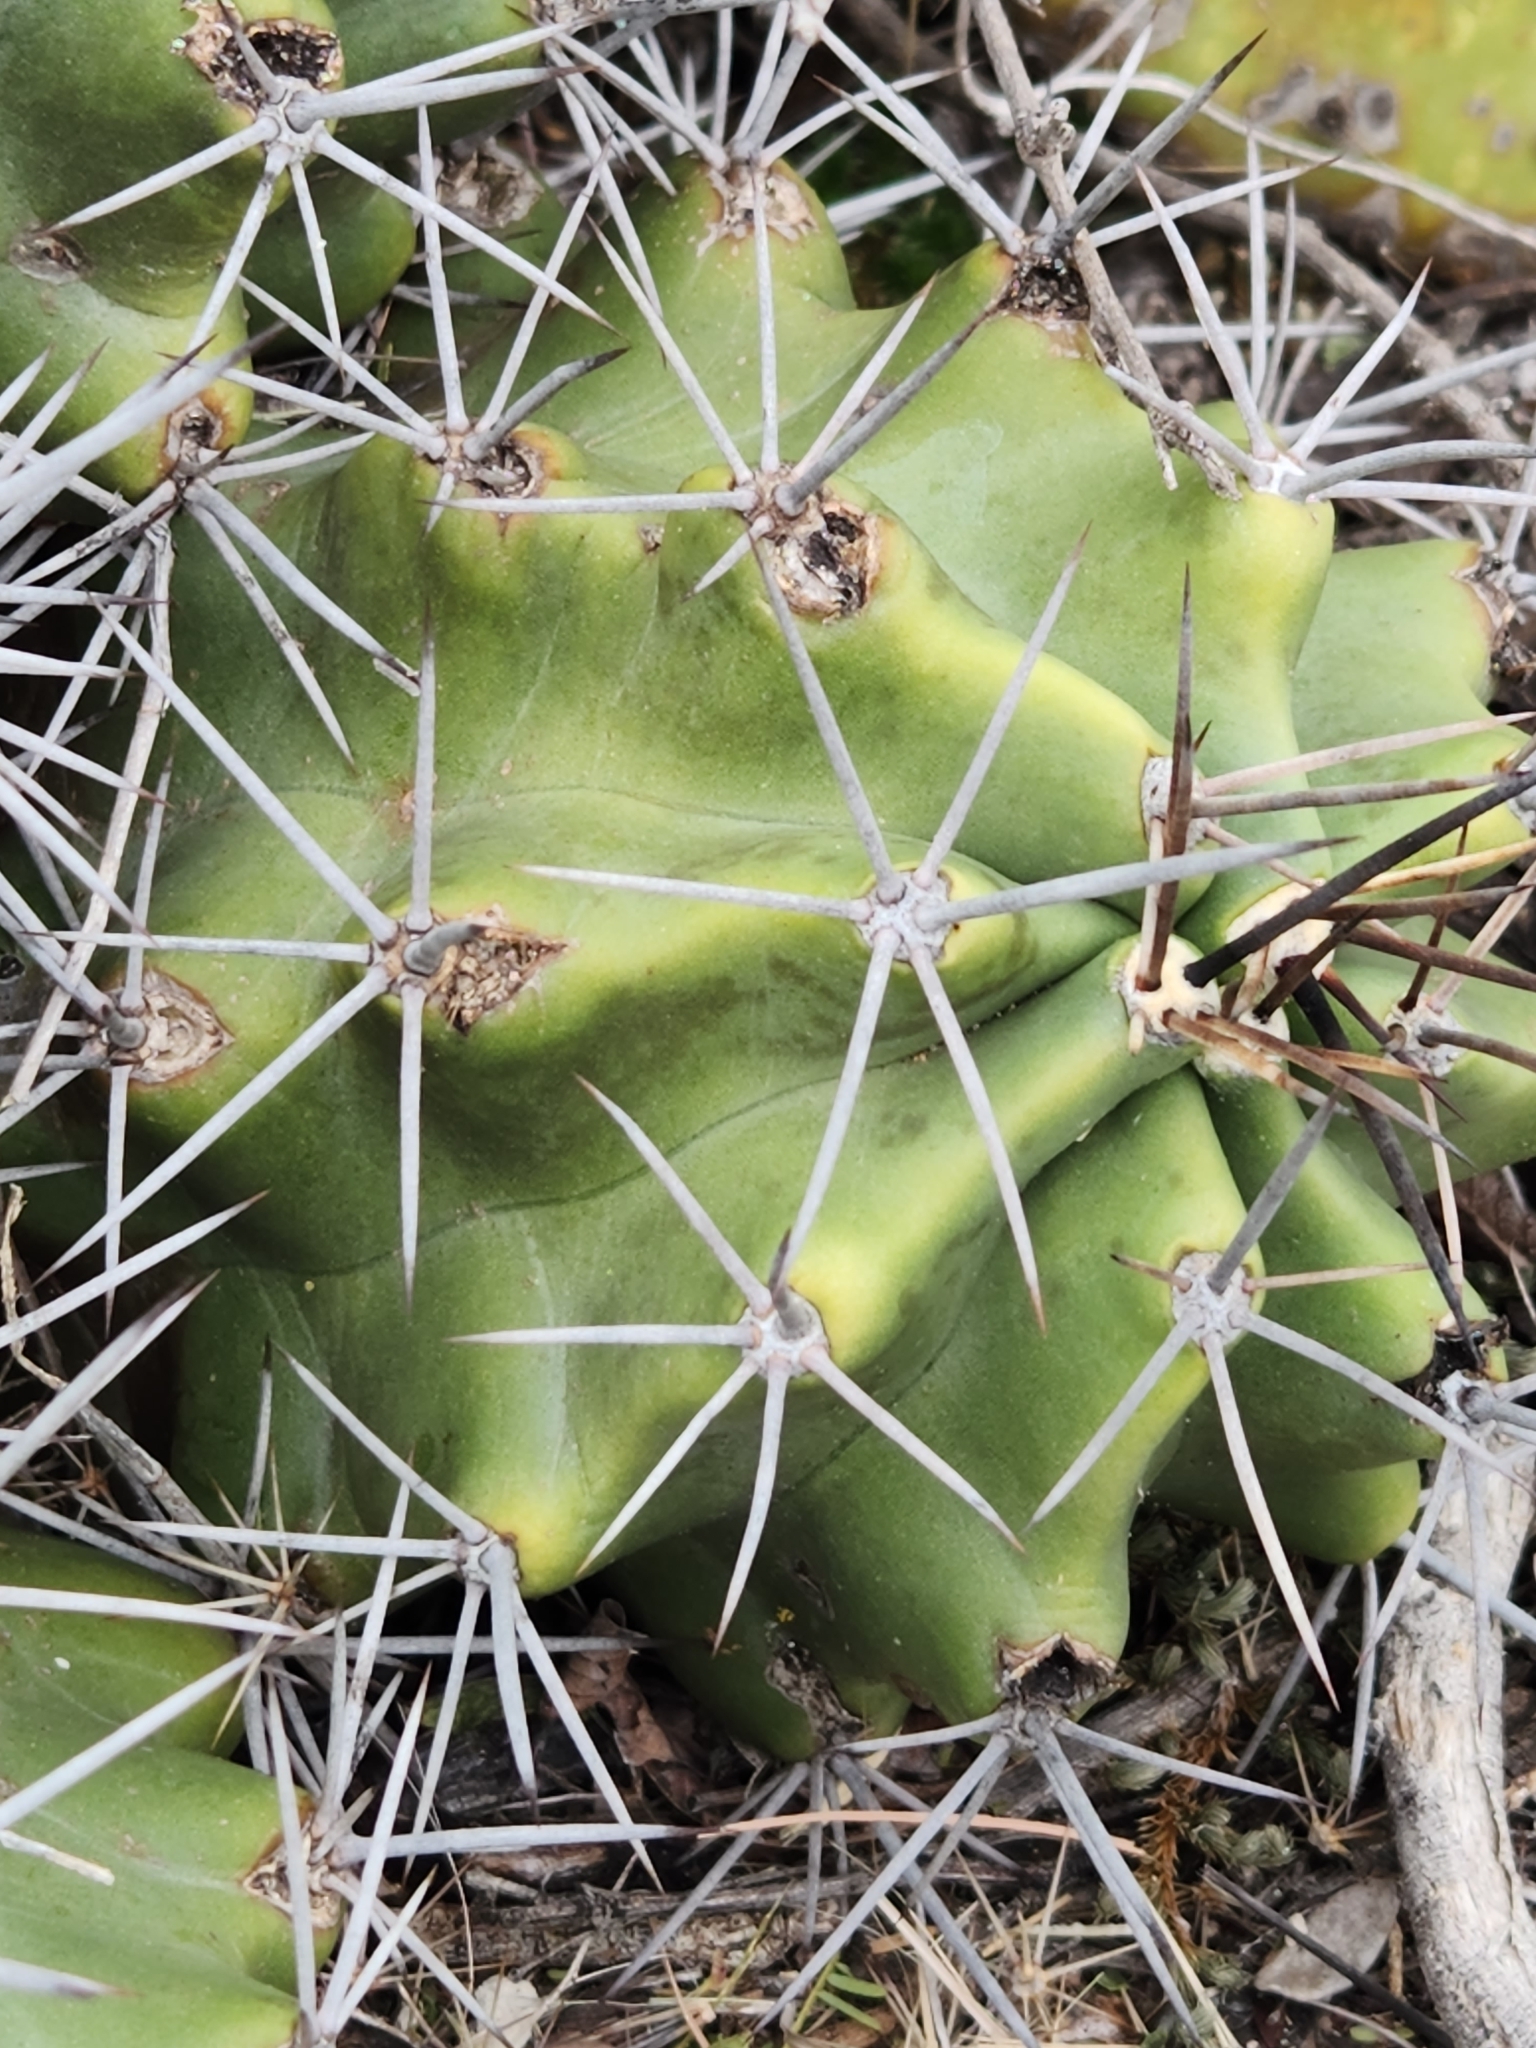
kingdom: Plantae
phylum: Tracheophyta
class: Magnoliopsida
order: Caryophyllales
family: Cactaceae
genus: Echinocereus
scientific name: Echinocereus coccineus
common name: Scarlet hedgehog cactus
